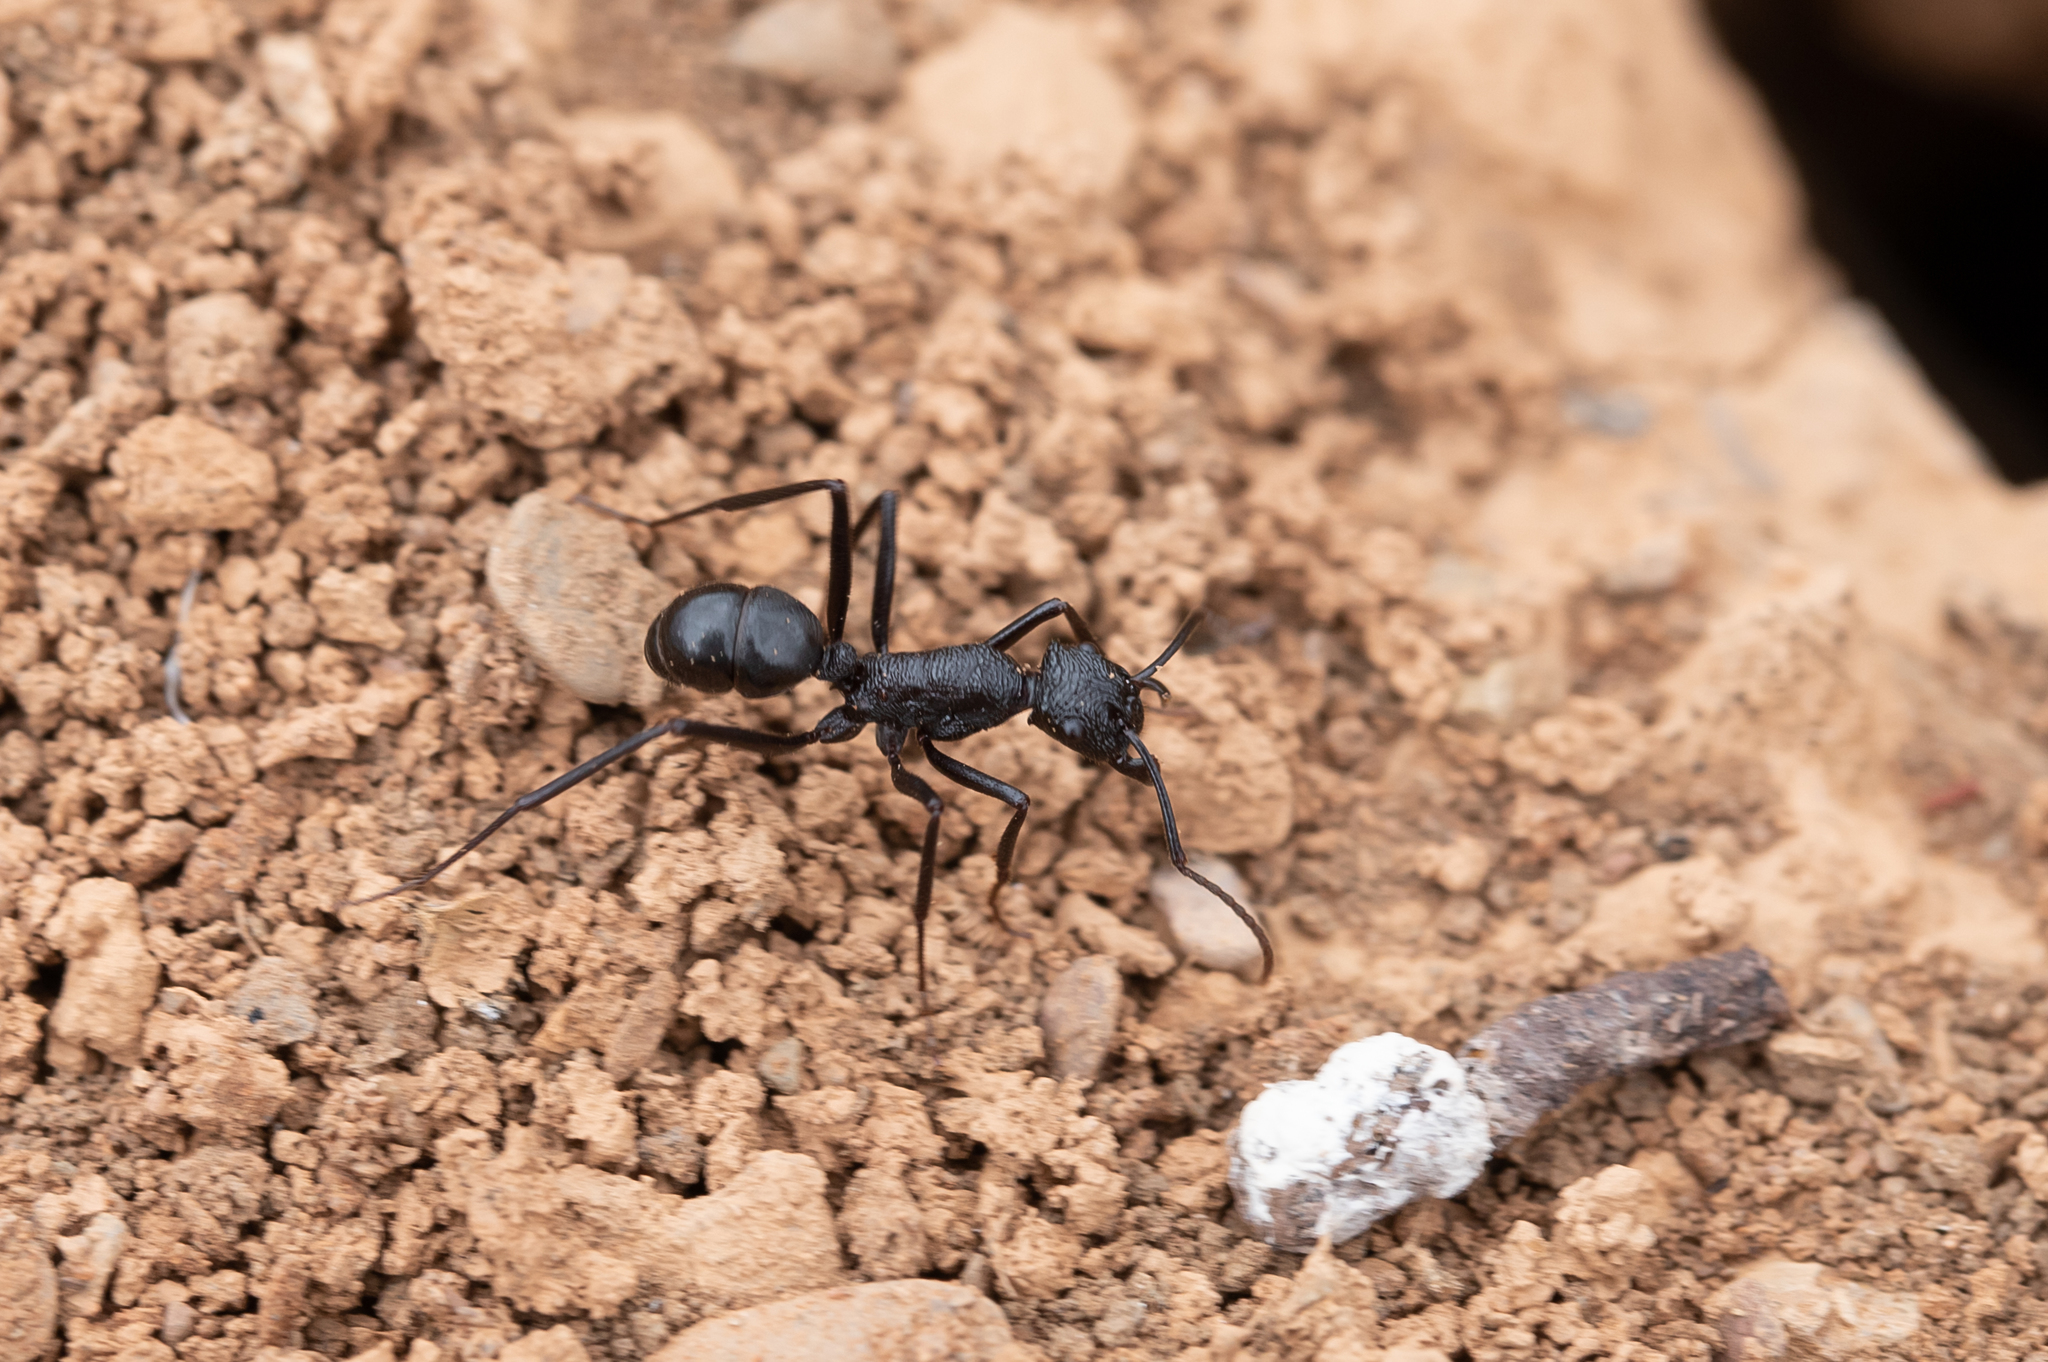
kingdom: Animalia
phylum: Arthropoda
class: Insecta
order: Hymenoptera
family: Formicidae
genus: Rhytidoponera
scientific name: Rhytidoponera mayri
